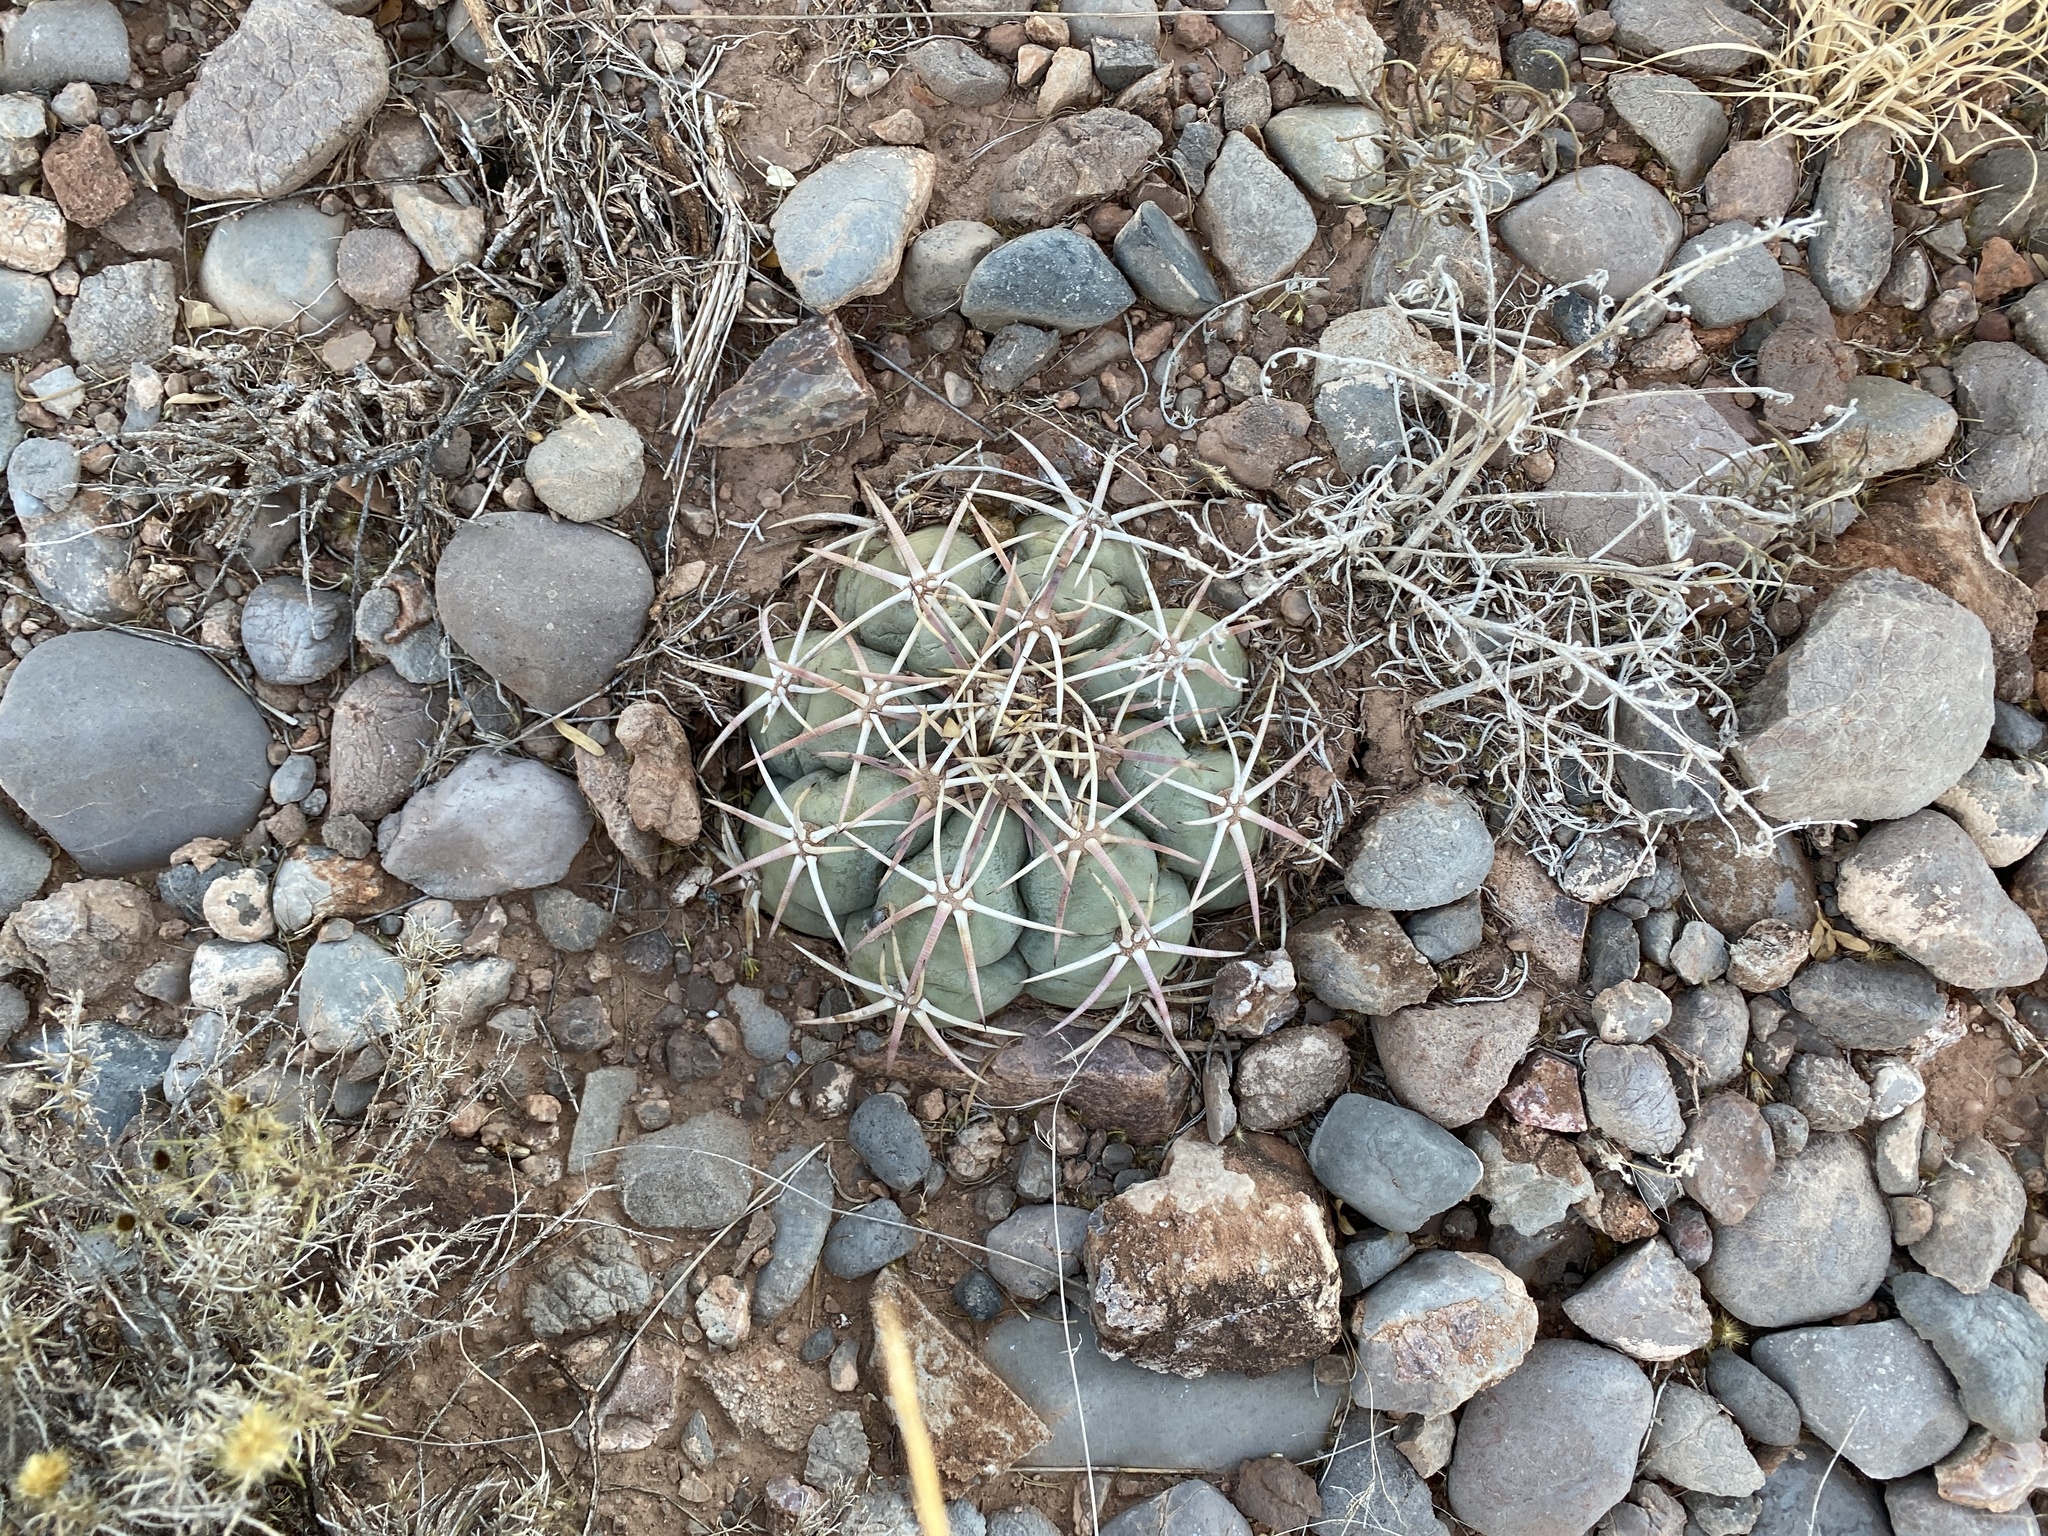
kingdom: Plantae
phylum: Tracheophyta
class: Magnoliopsida
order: Caryophyllales
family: Cactaceae
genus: Echinocactus
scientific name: Echinocactus horizonthalonius
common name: Devilshead
